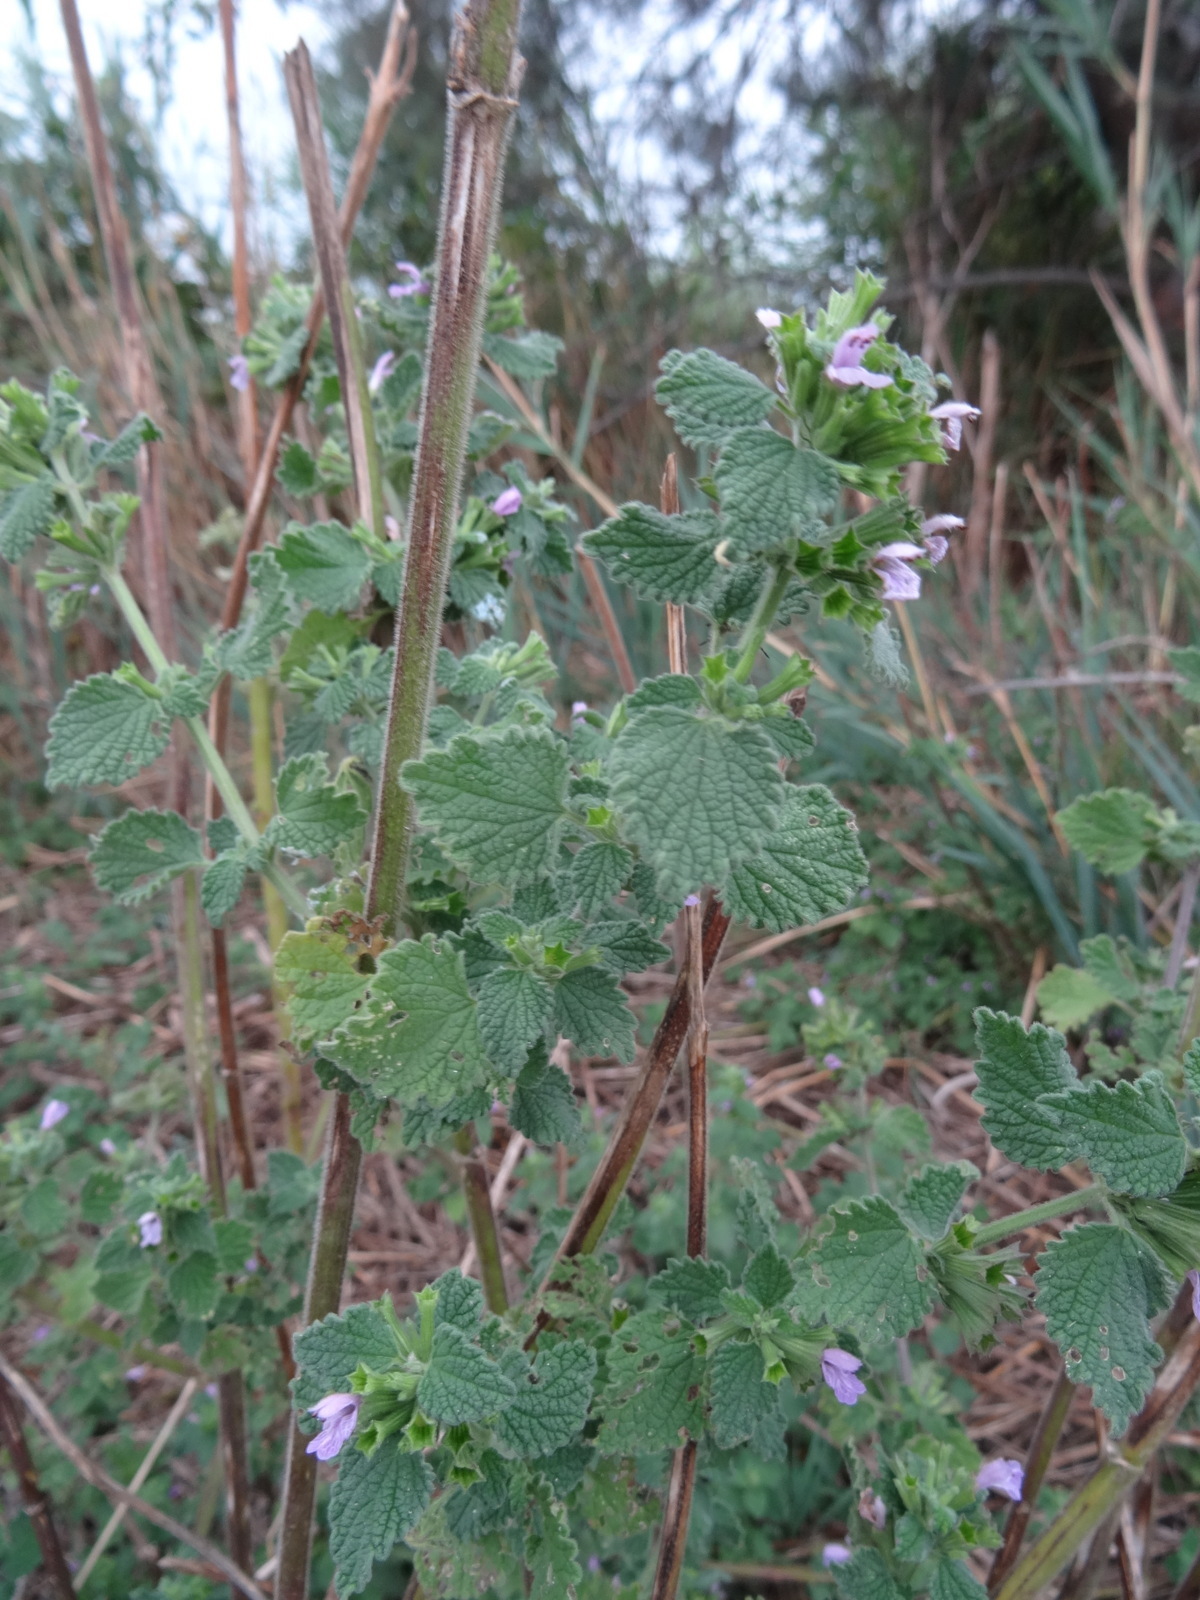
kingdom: Plantae
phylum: Tracheophyta
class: Magnoliopsida
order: Lamiales
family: Lamiaceae
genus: Ballota
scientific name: Ballota nigra
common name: Black horehound
